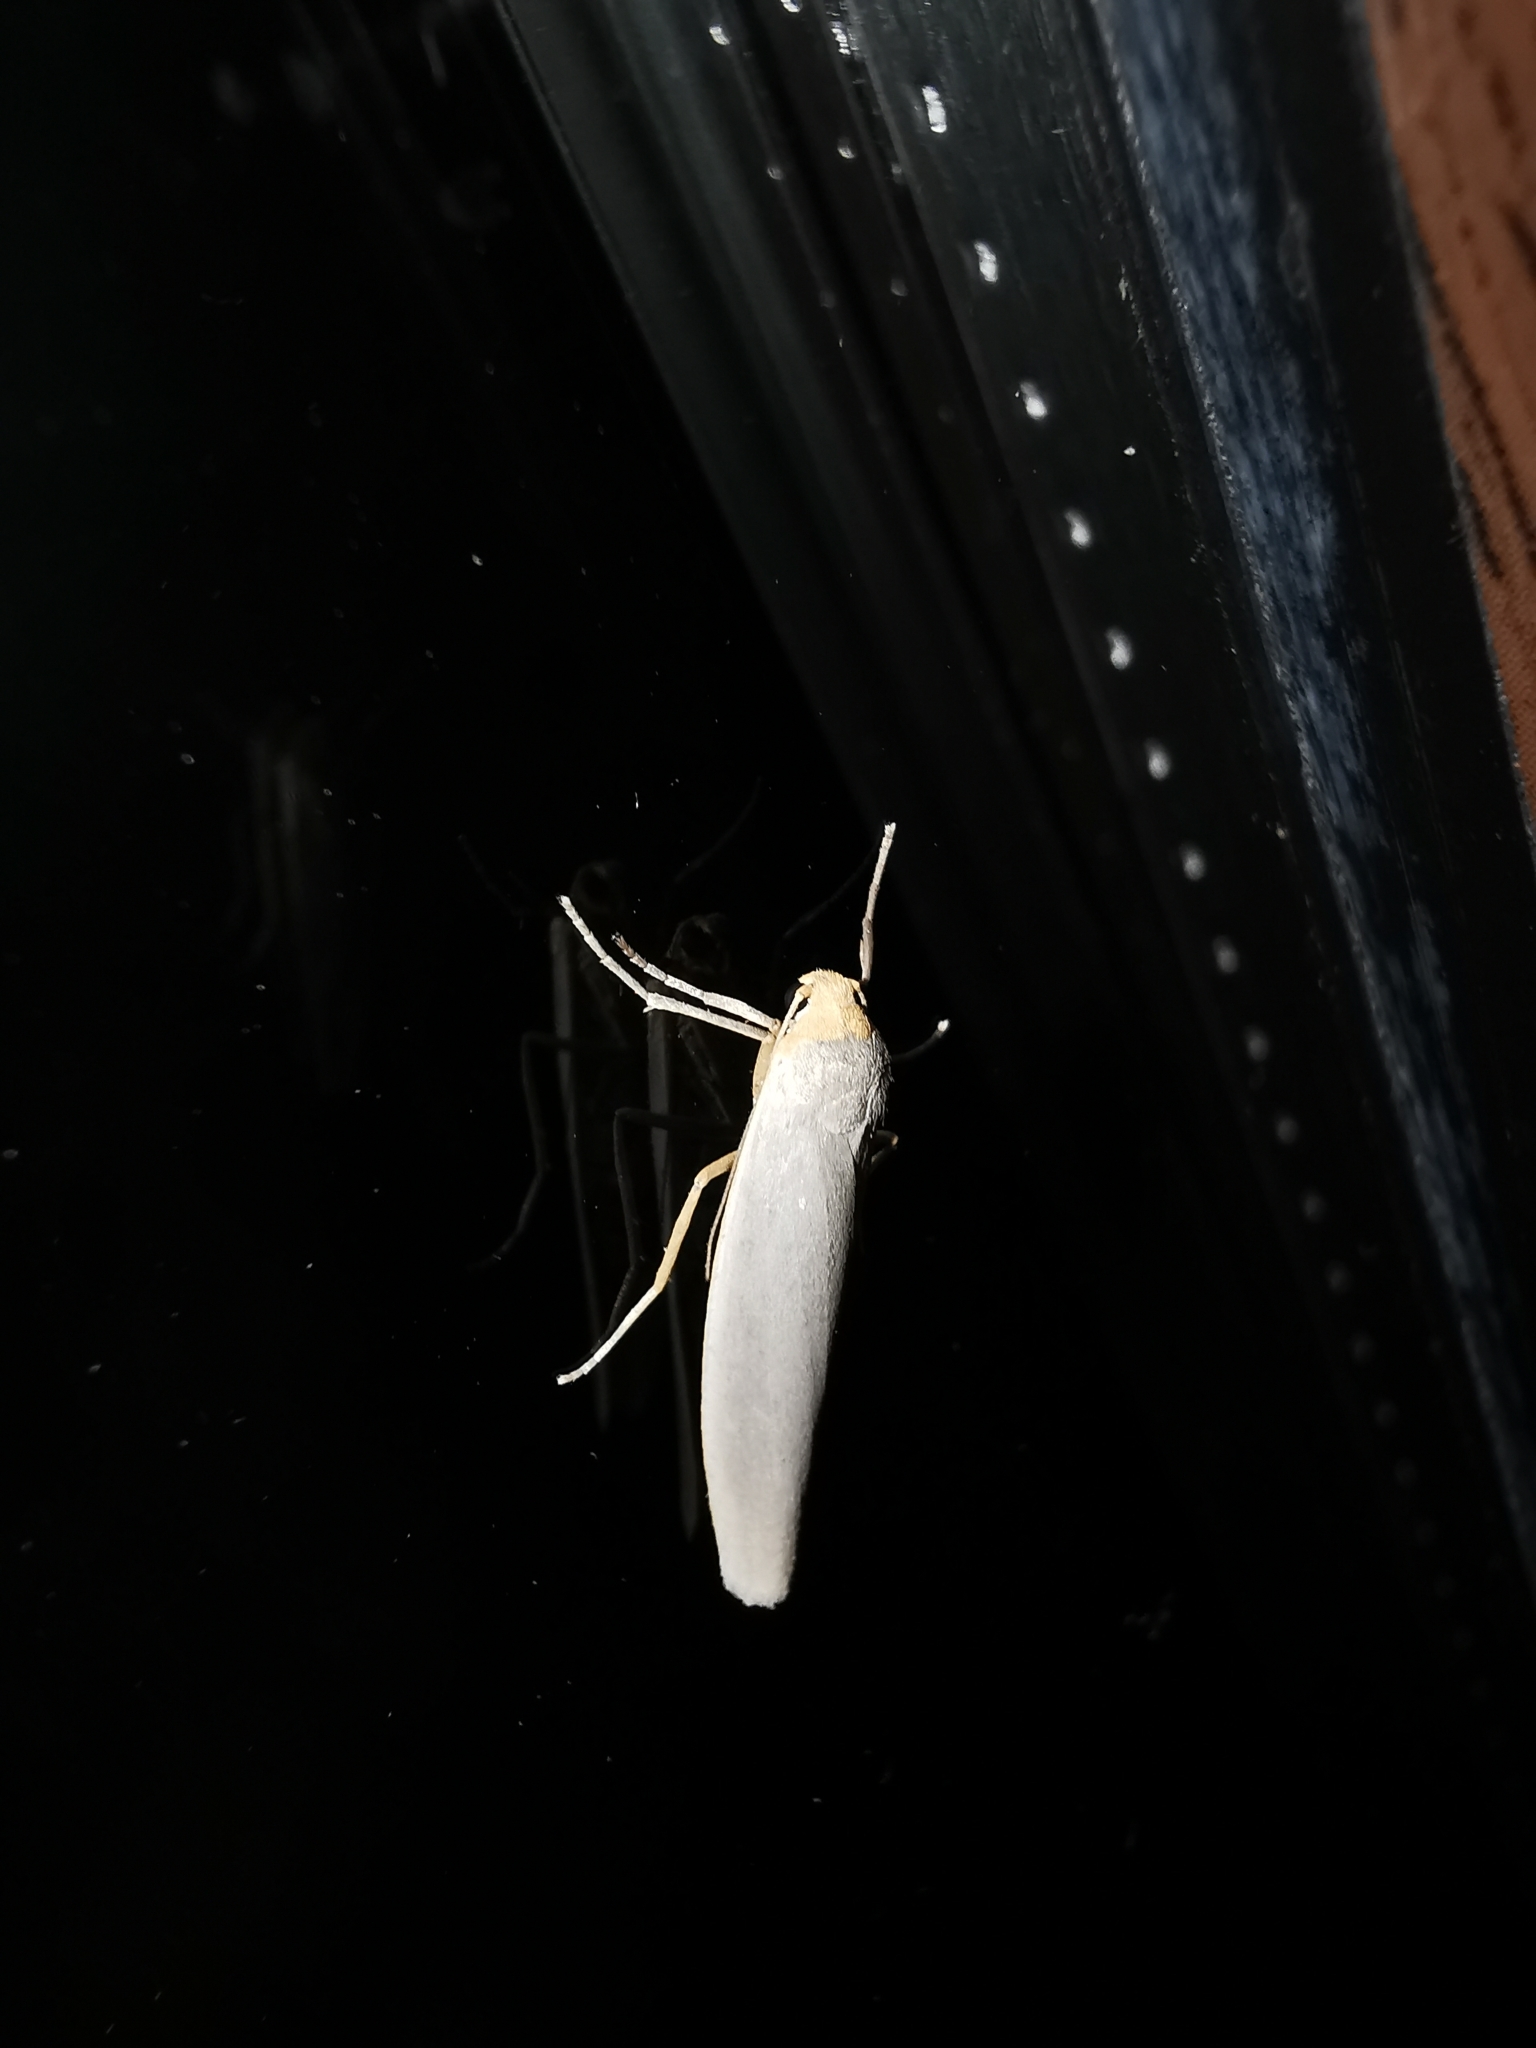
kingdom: Animalia
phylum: Arthropoda
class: Insecta
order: Lepidoptera
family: Erebidae
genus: Eilema
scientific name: Eilema caniola
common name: Hoary footman
